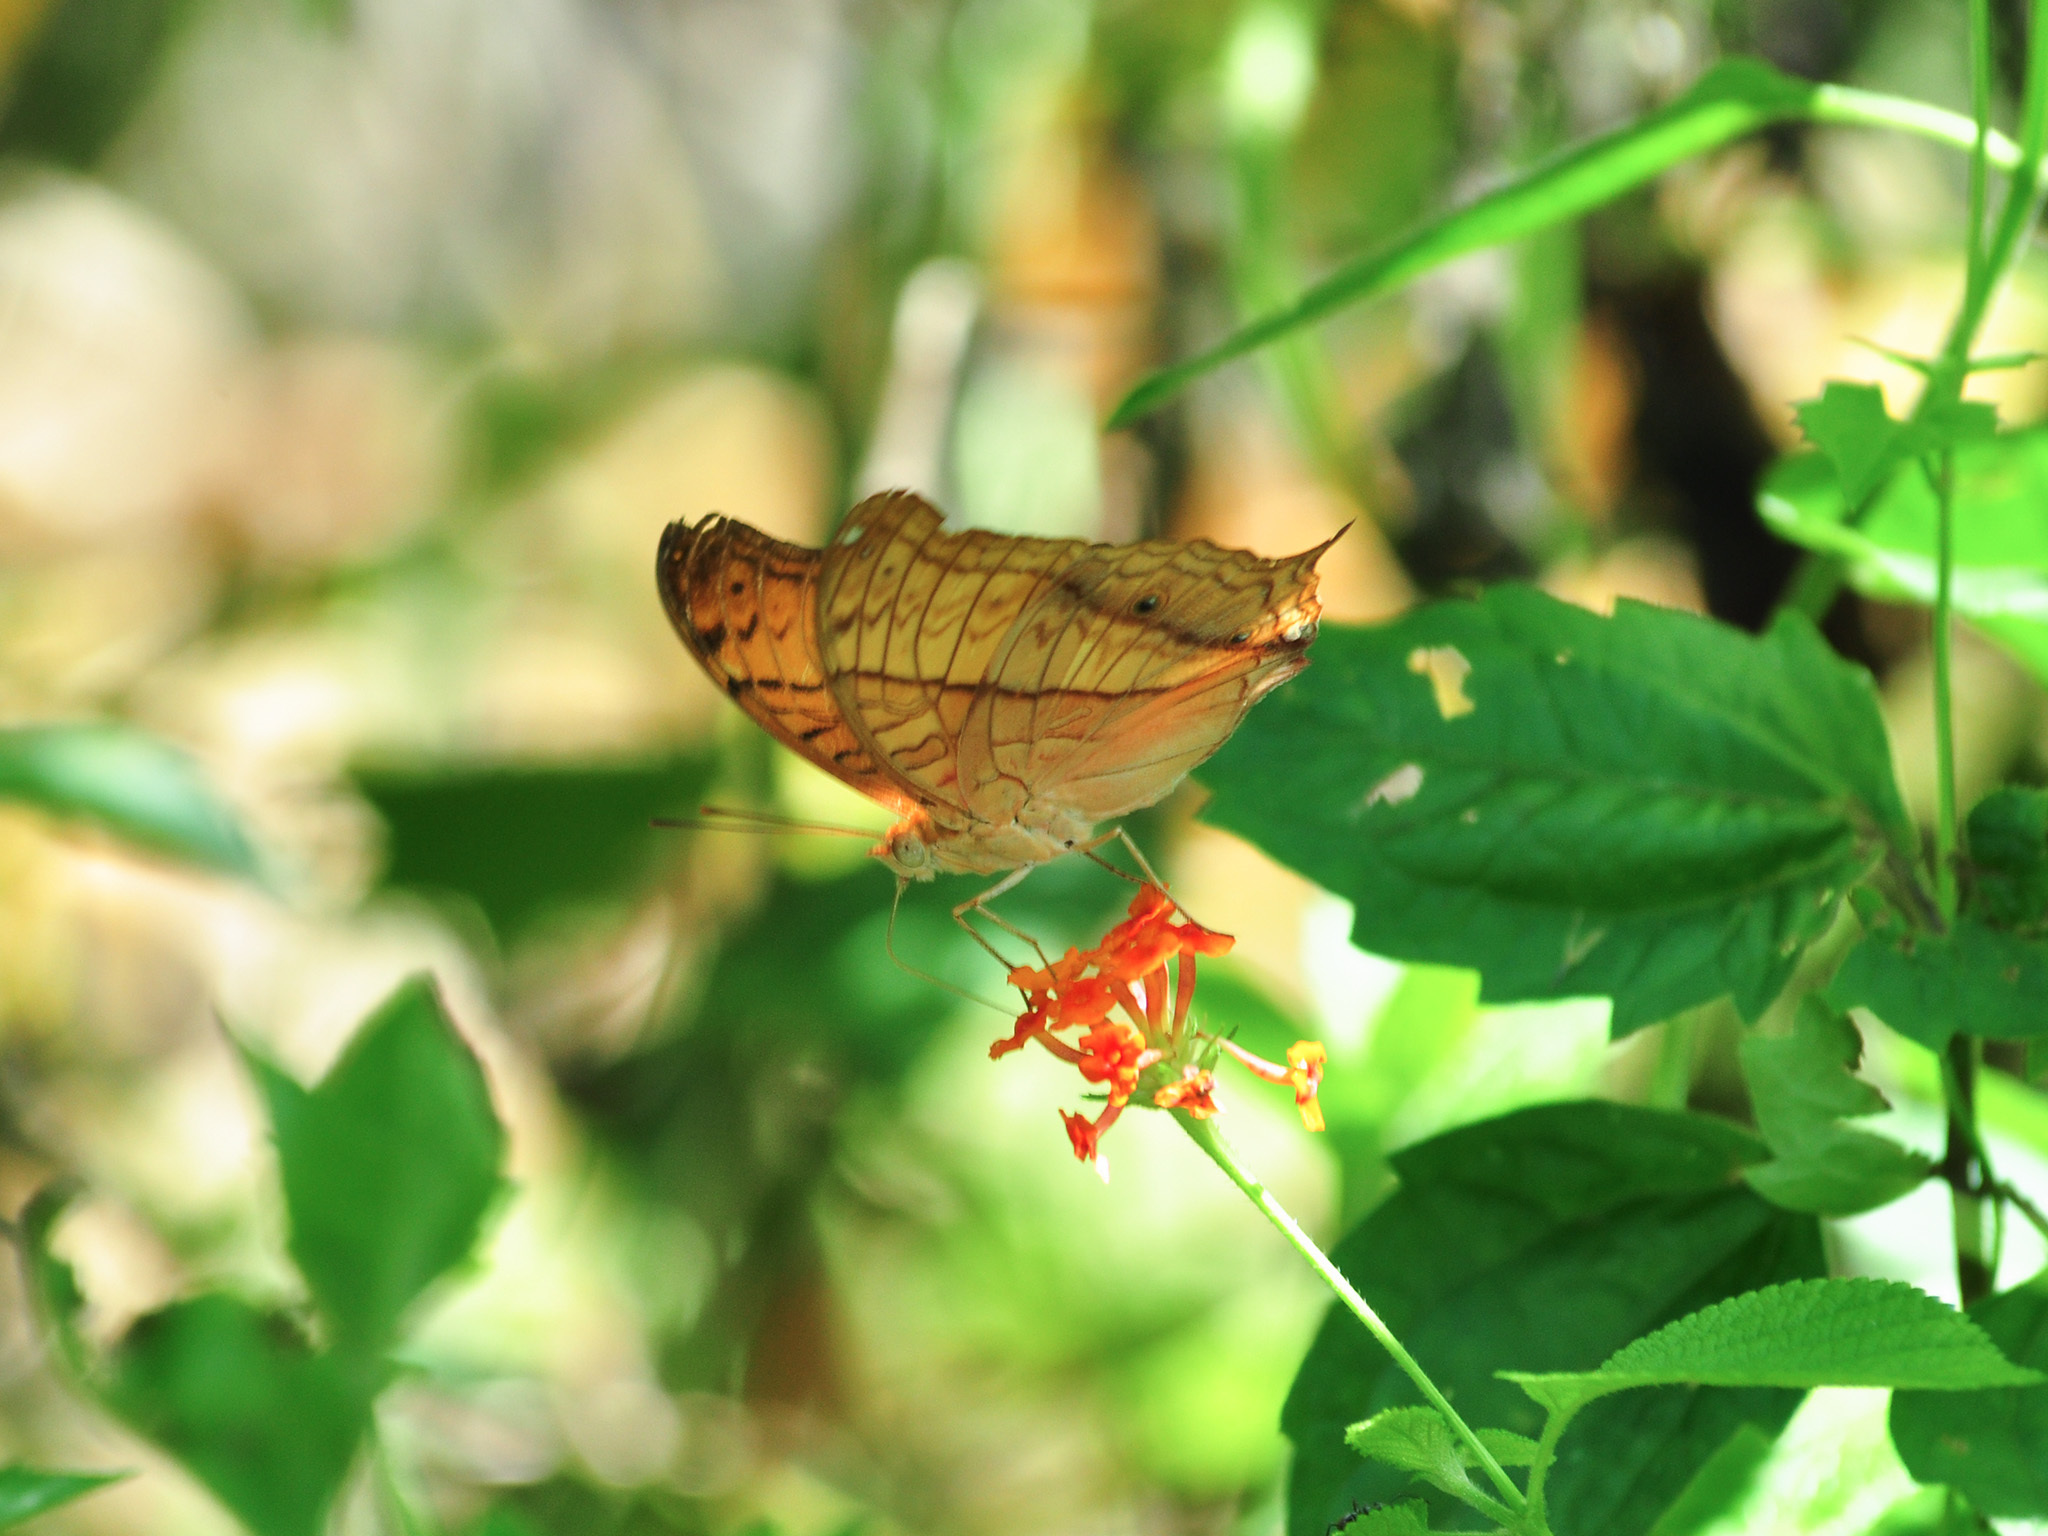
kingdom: Animalia
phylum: Arthropoda
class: Insecta
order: Lepidoptera
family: Nymphalidae
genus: Vindula
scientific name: Vindula deione
